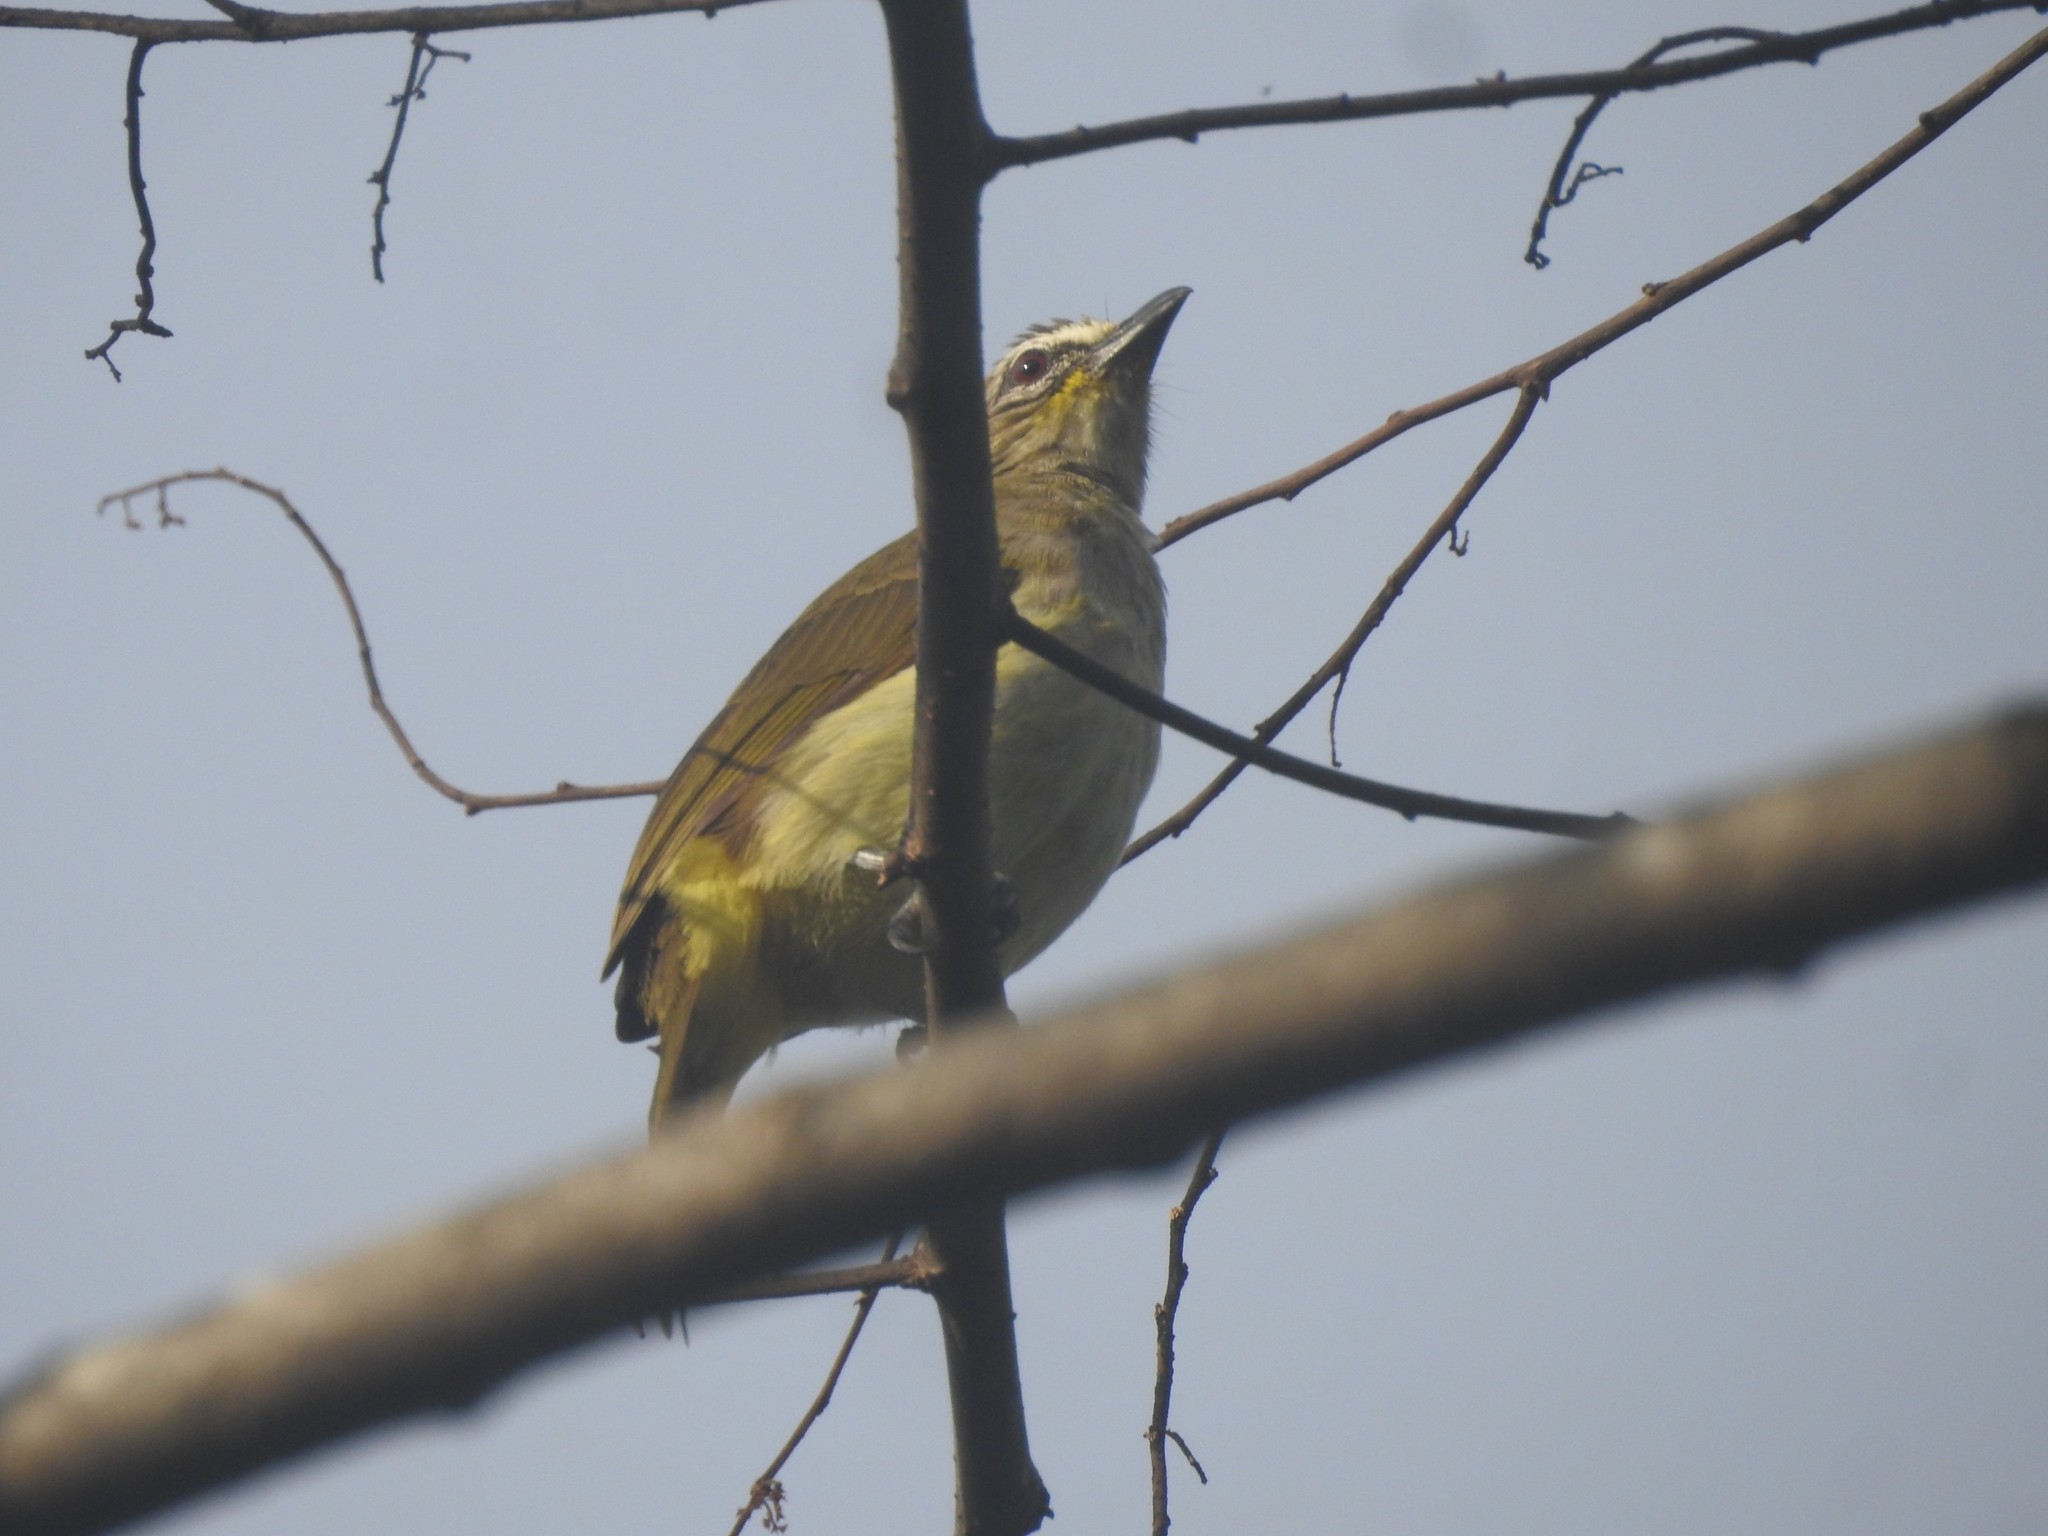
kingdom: Animalia
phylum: Chordata
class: Aves
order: Passeriformes
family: Pycnonotidae
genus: Pycnonotus
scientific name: Pycnonotus luteolus
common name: White-browed bulbul
